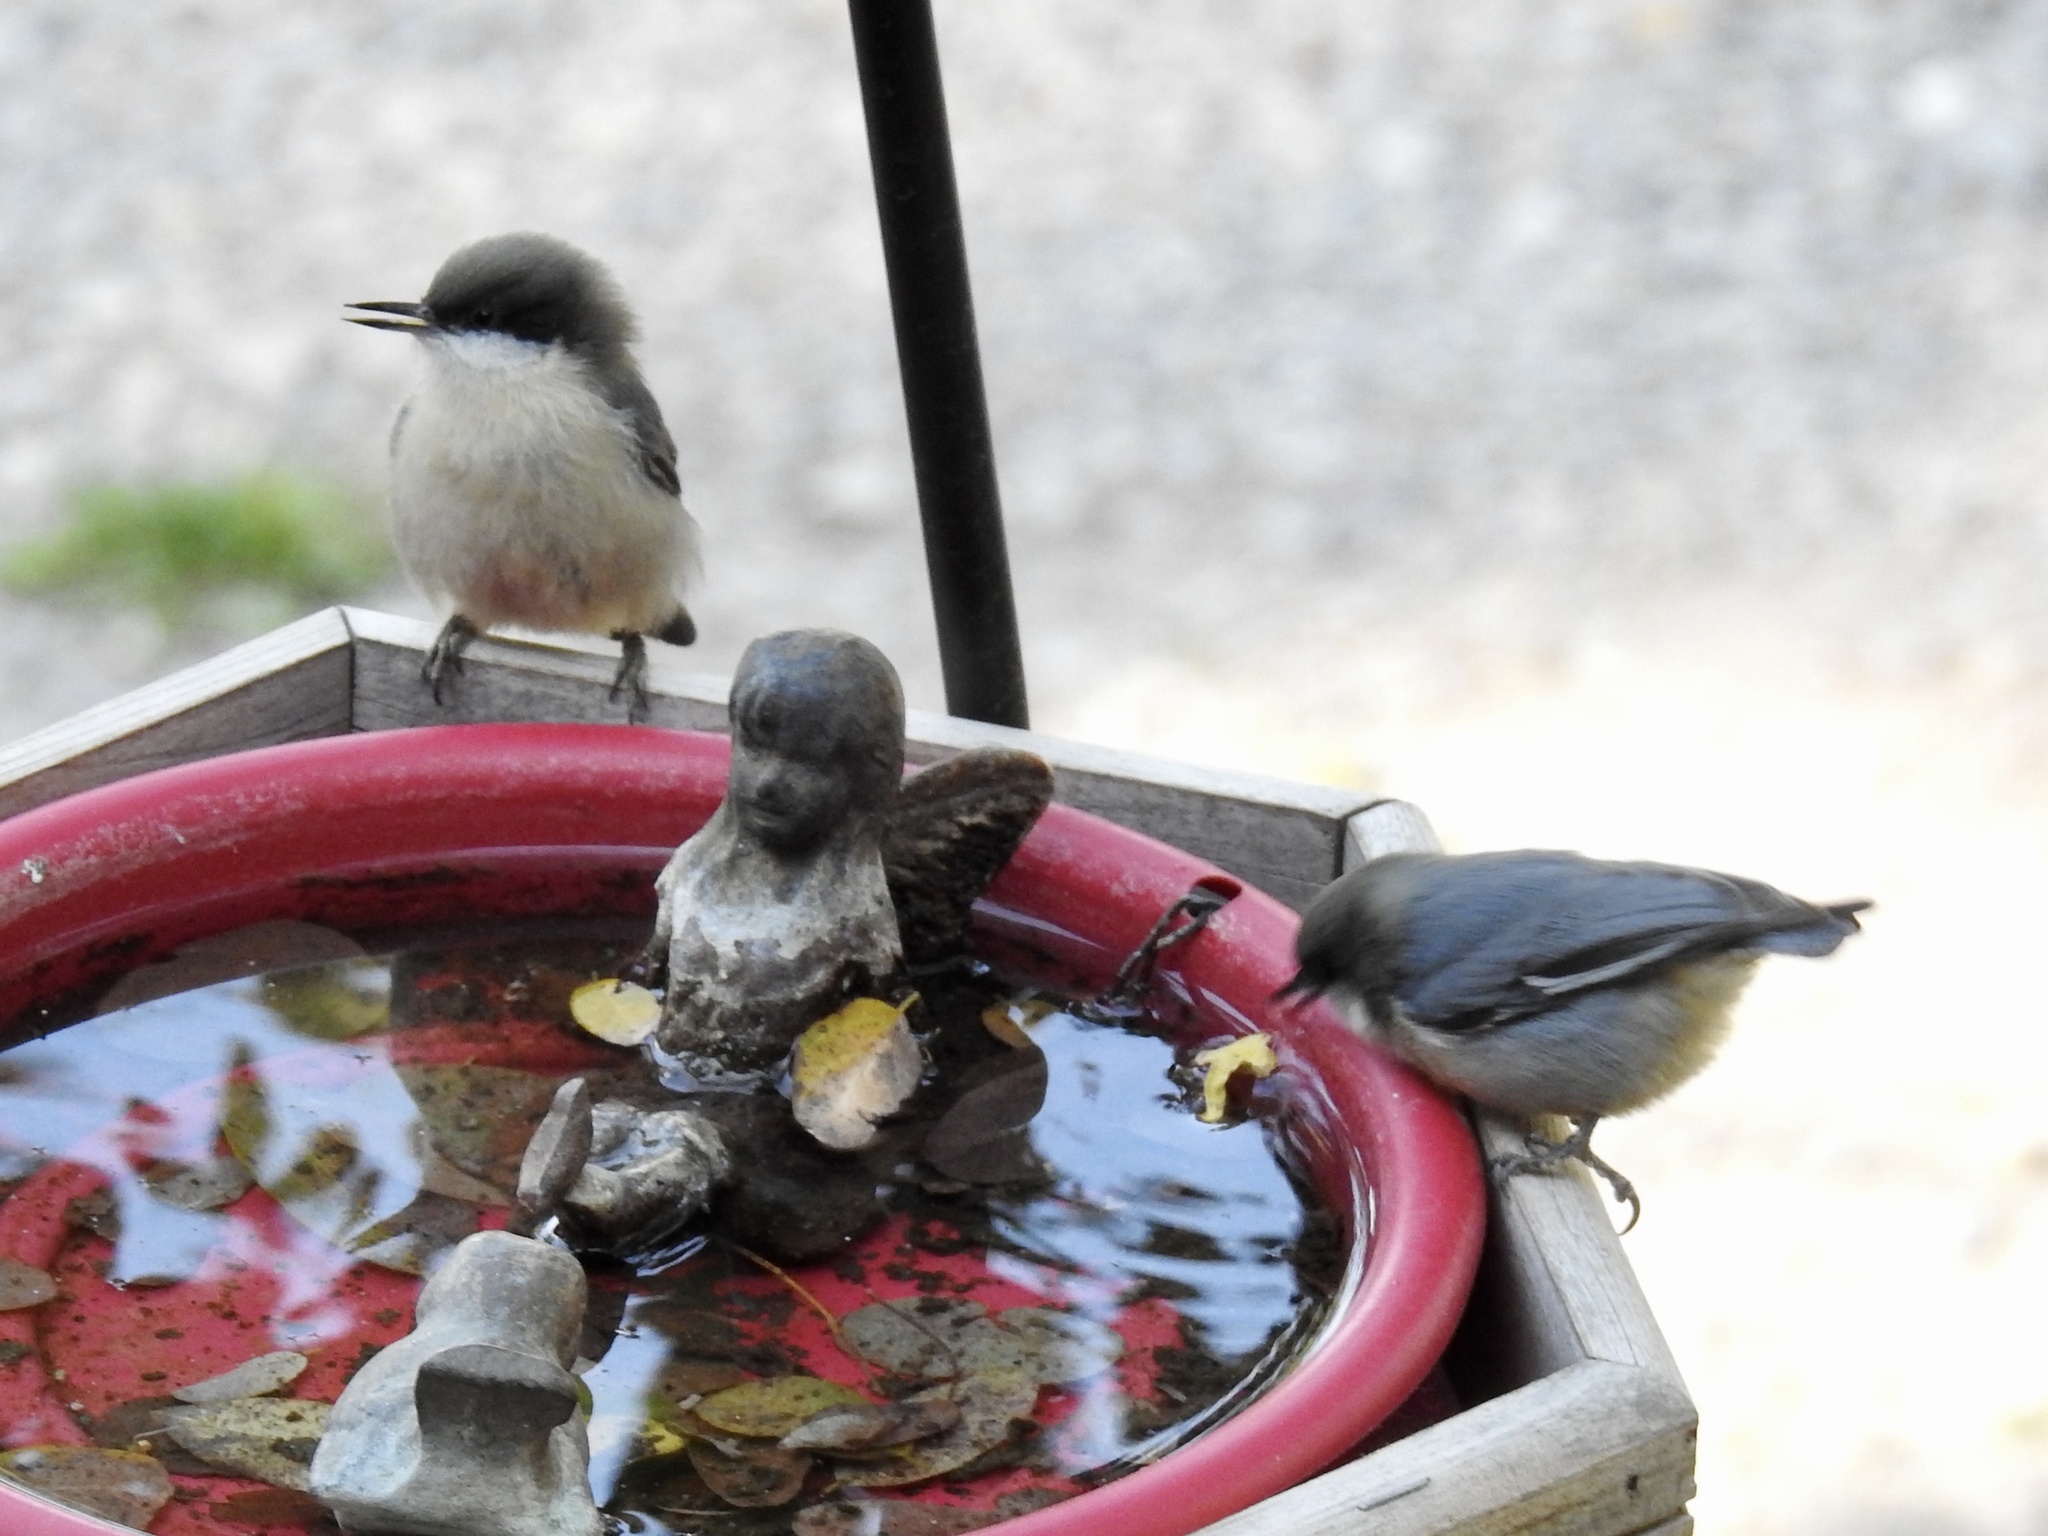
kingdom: Animalia
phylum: Chordata
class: Aves
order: Passeriformes
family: Sittidae
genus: Sitta
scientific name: Sitta pygmaea
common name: Pygmy nuthatch
